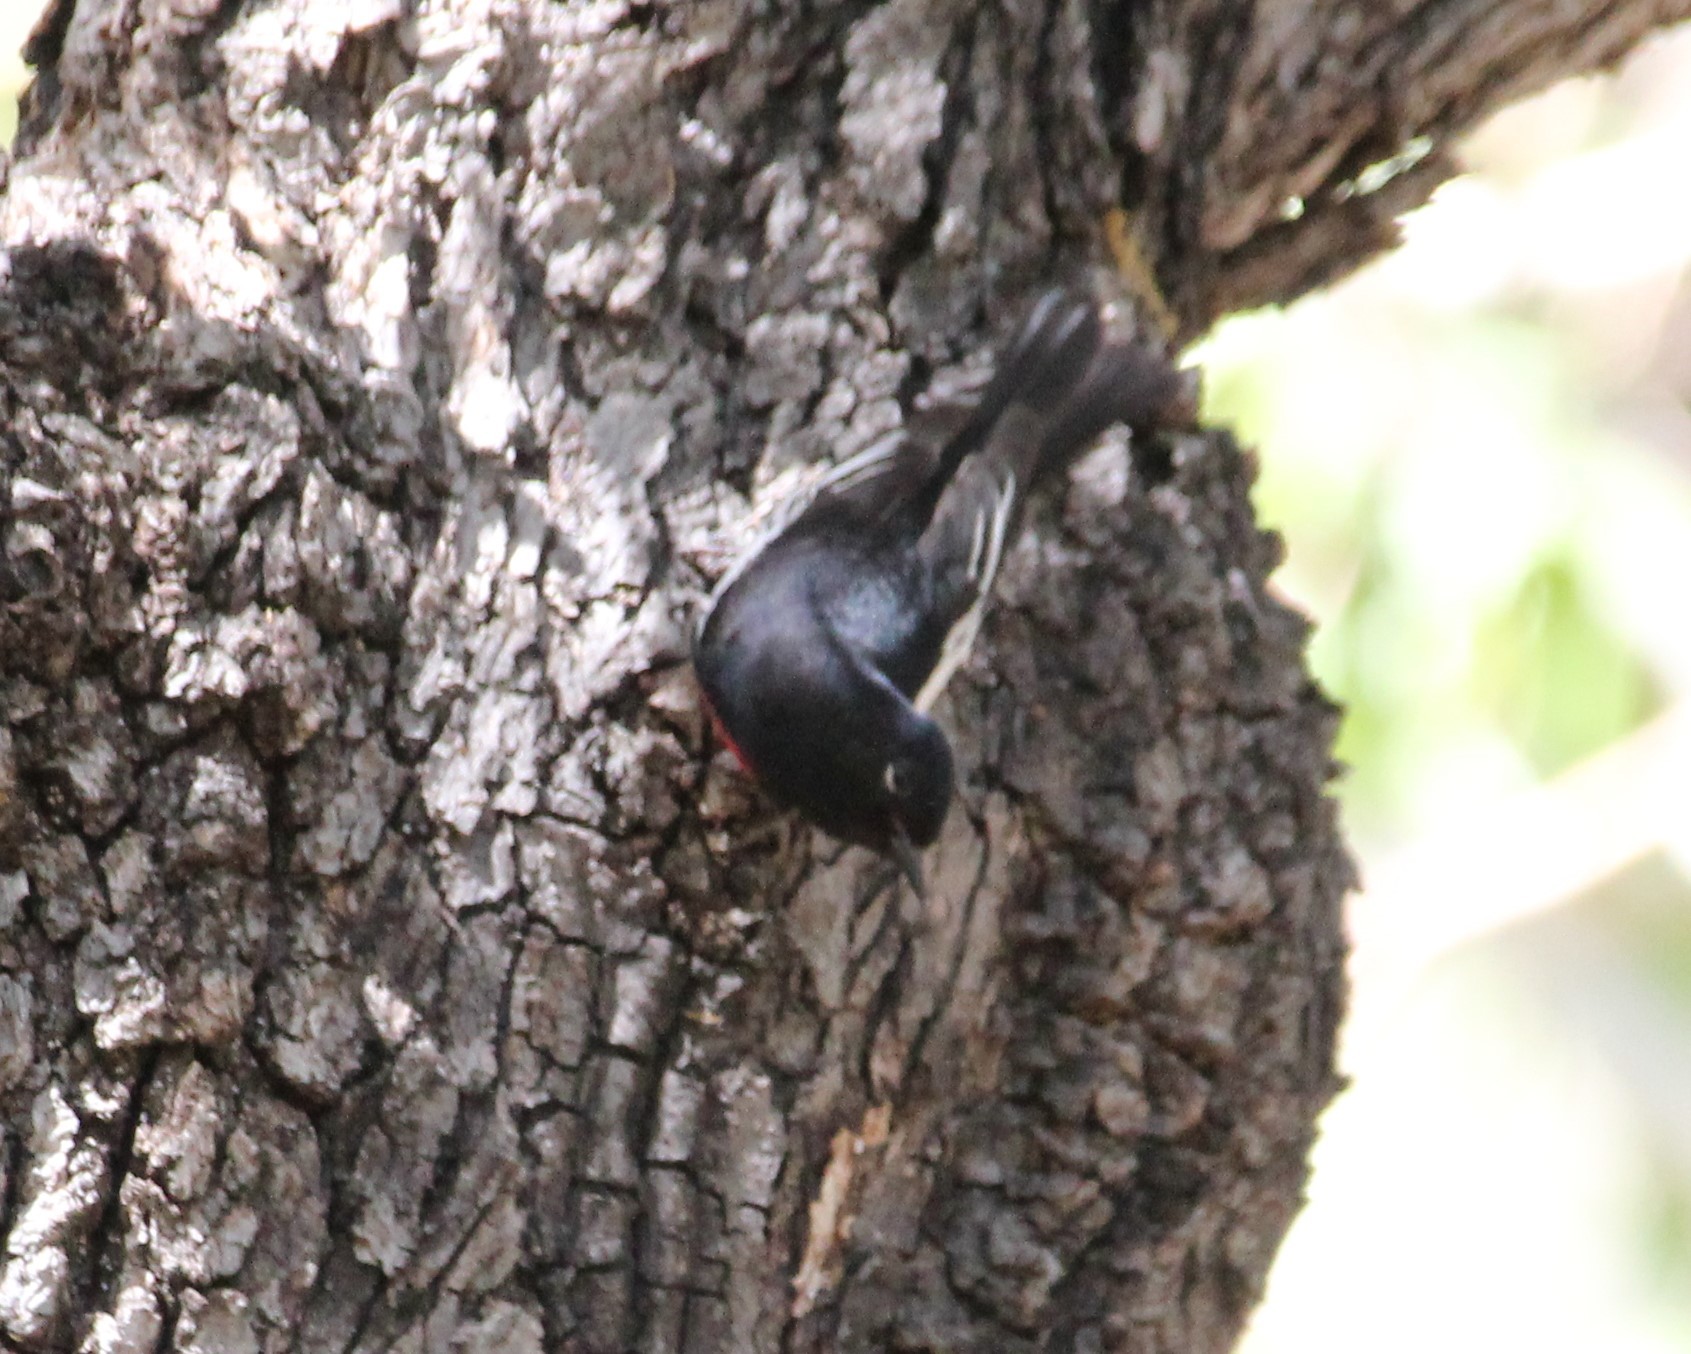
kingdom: Animalia
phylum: Chordata
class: Aves
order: Passeriformes
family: Parulidae
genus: Myioborus
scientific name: Myioborus pictus
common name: Painted whitestart
